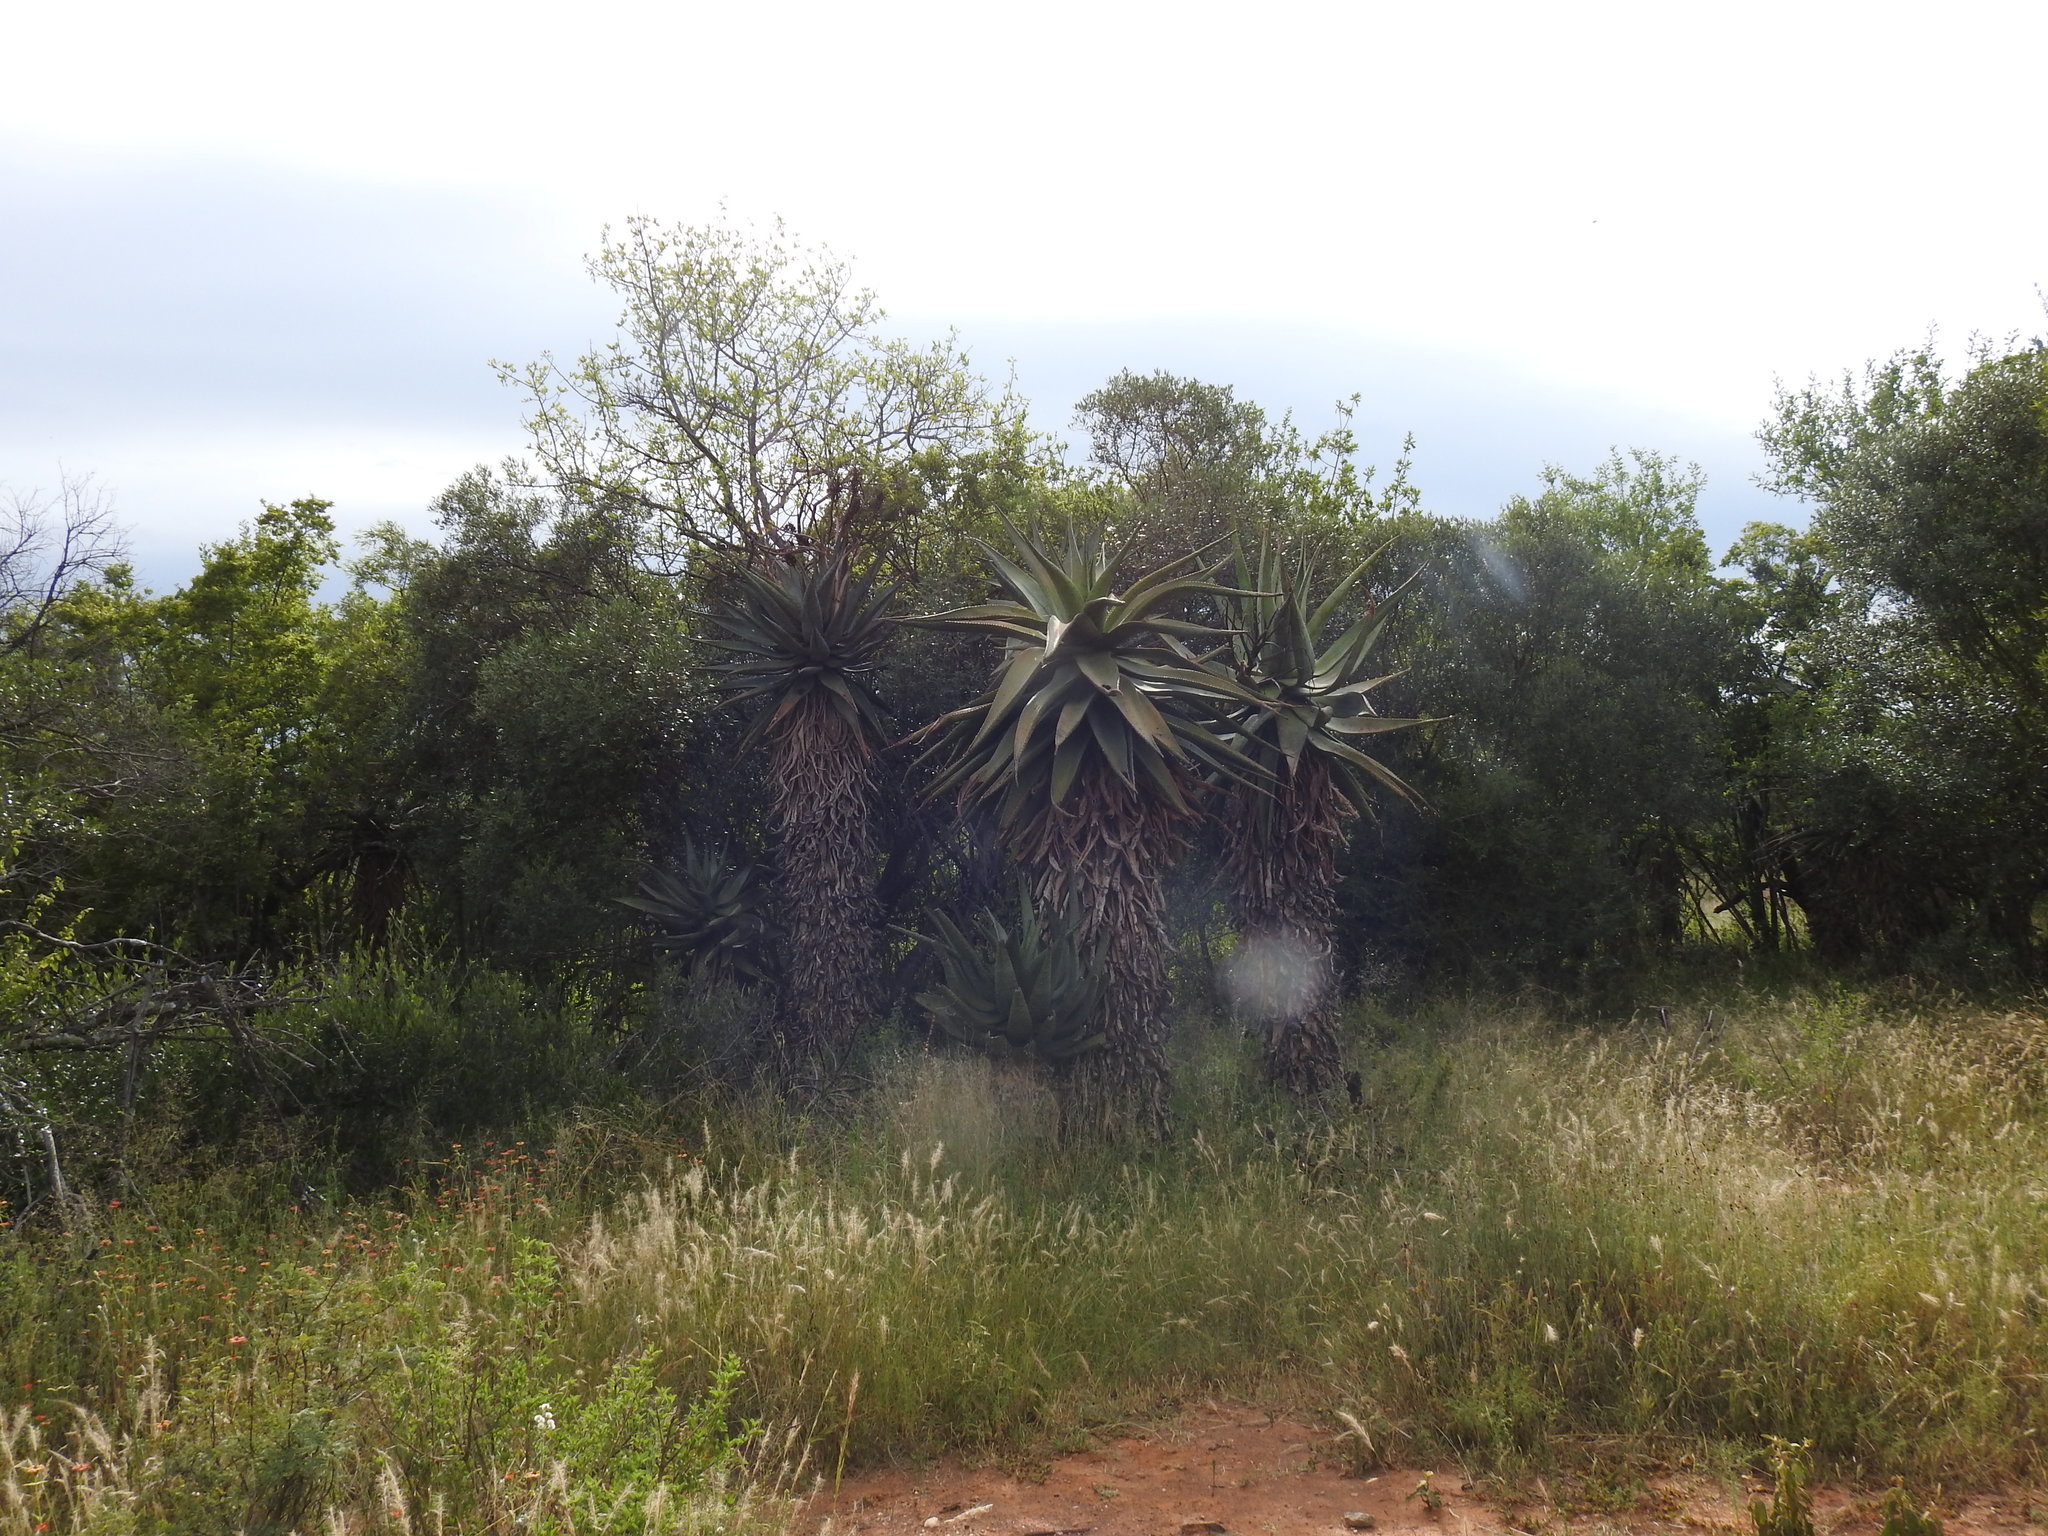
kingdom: Plantae
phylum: Tracheophyta
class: Liliopsida
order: Asparagales
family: Asphodelaceae
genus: Aloe
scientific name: Aloe marlothii
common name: Flat-flowered aloe
